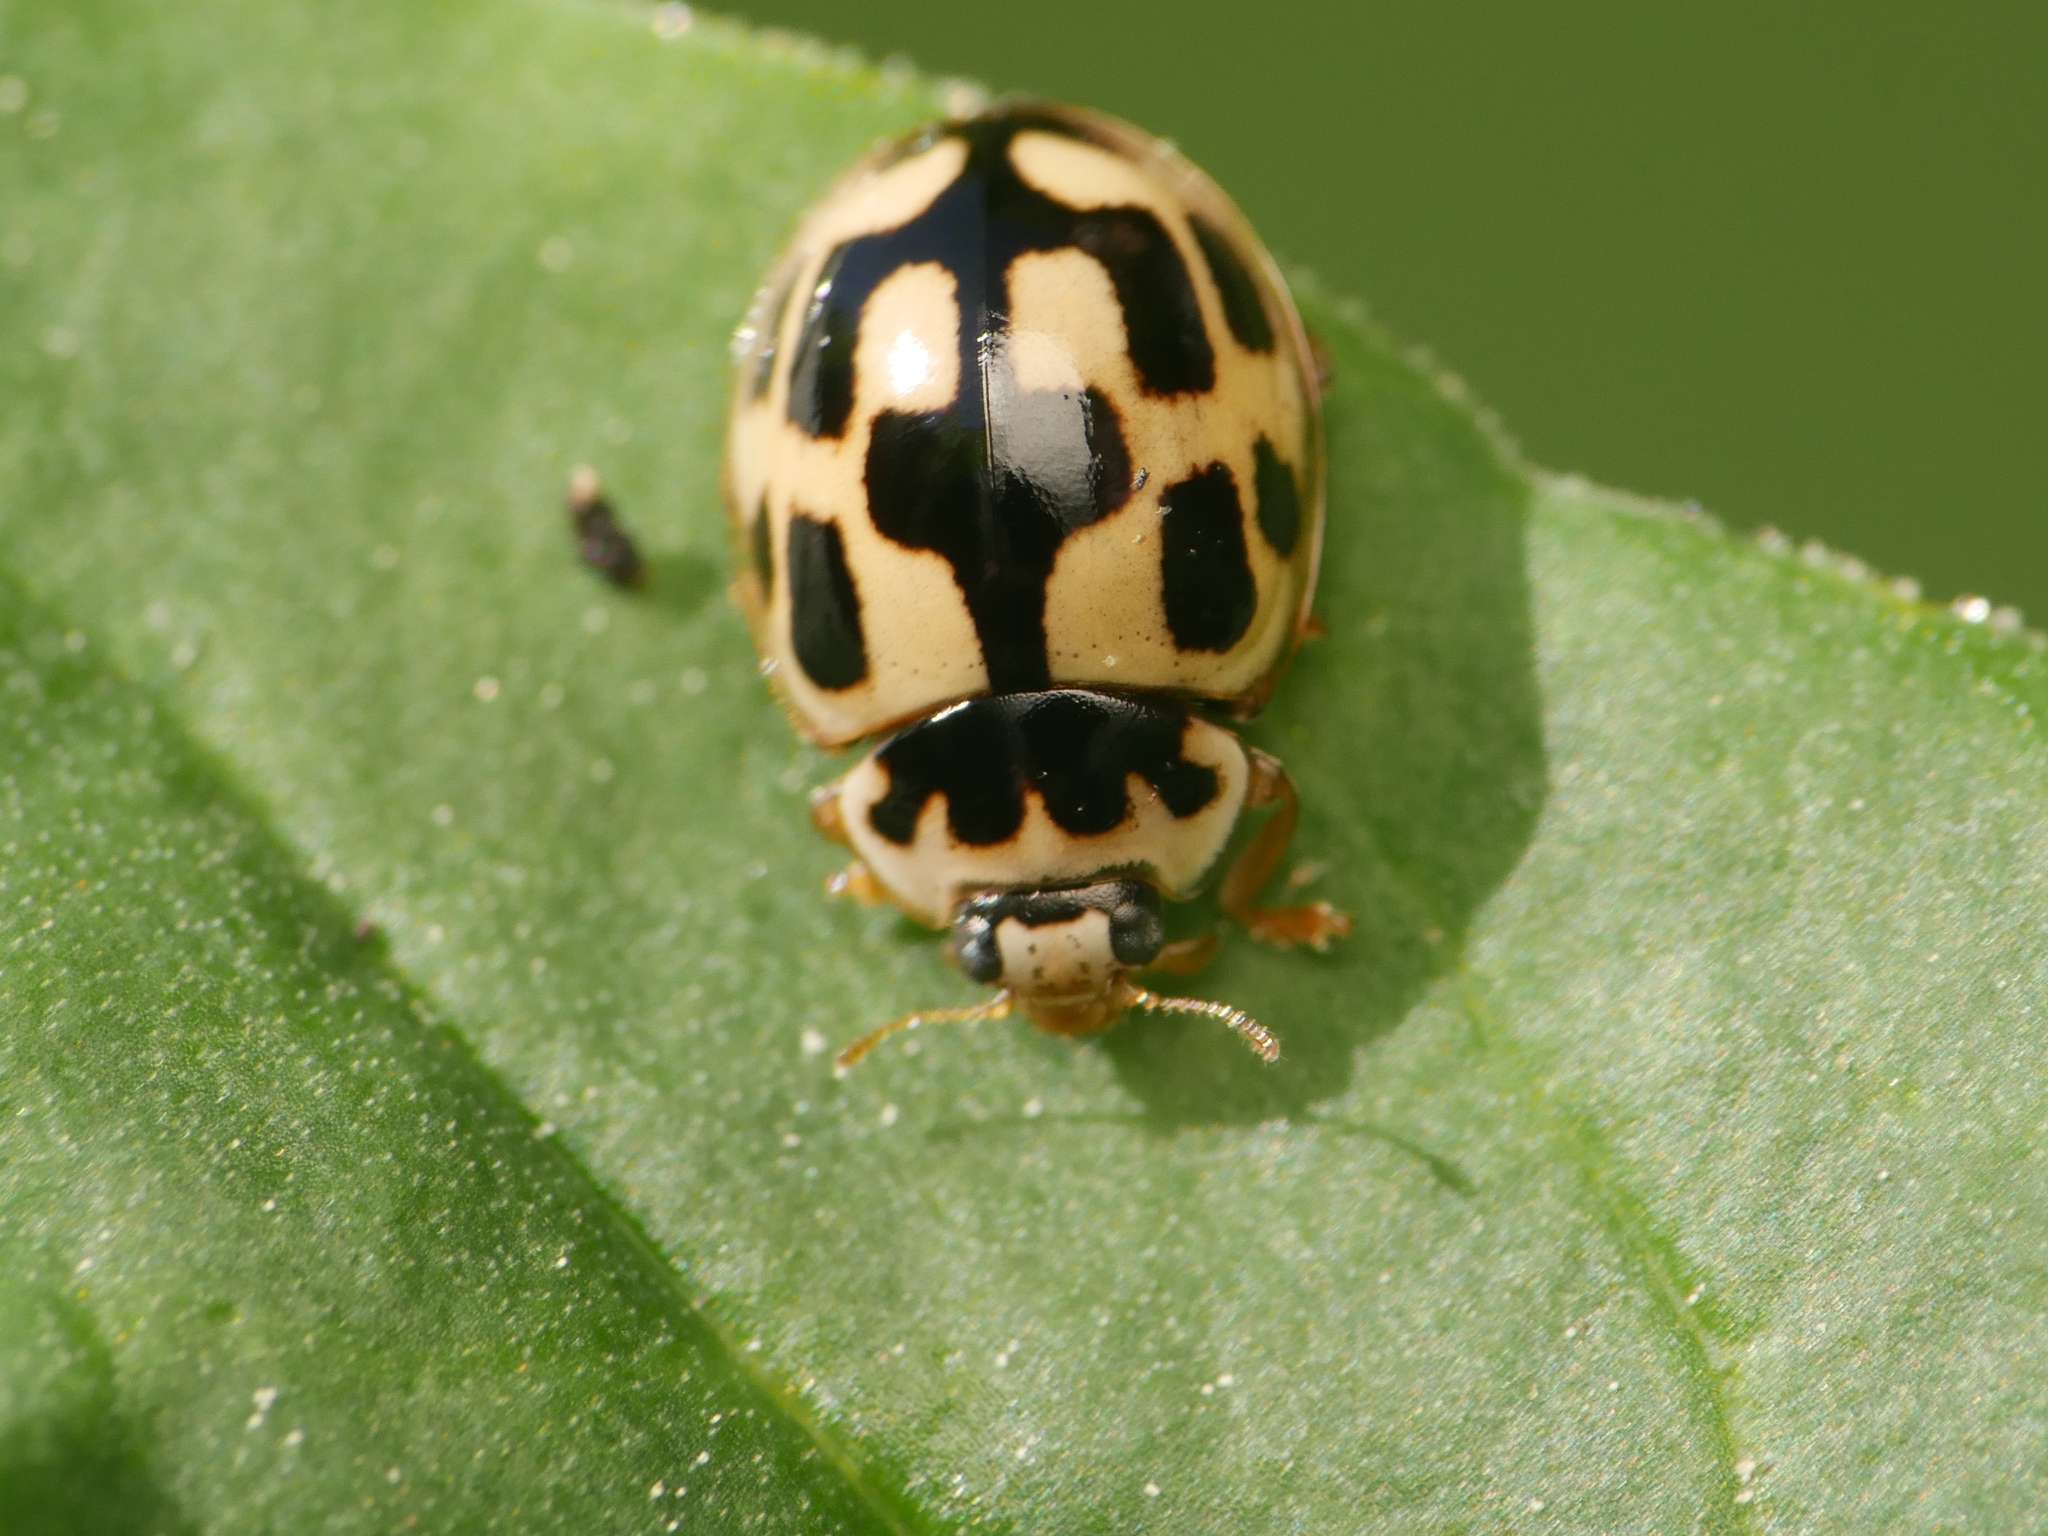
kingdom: Animalia
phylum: Arthropoda
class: Insecta
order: Coleoptera
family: Coccinellidae
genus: Propylaea
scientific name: Propylaea quatuordecimpunctata
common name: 14-spotted ladybird beetle
